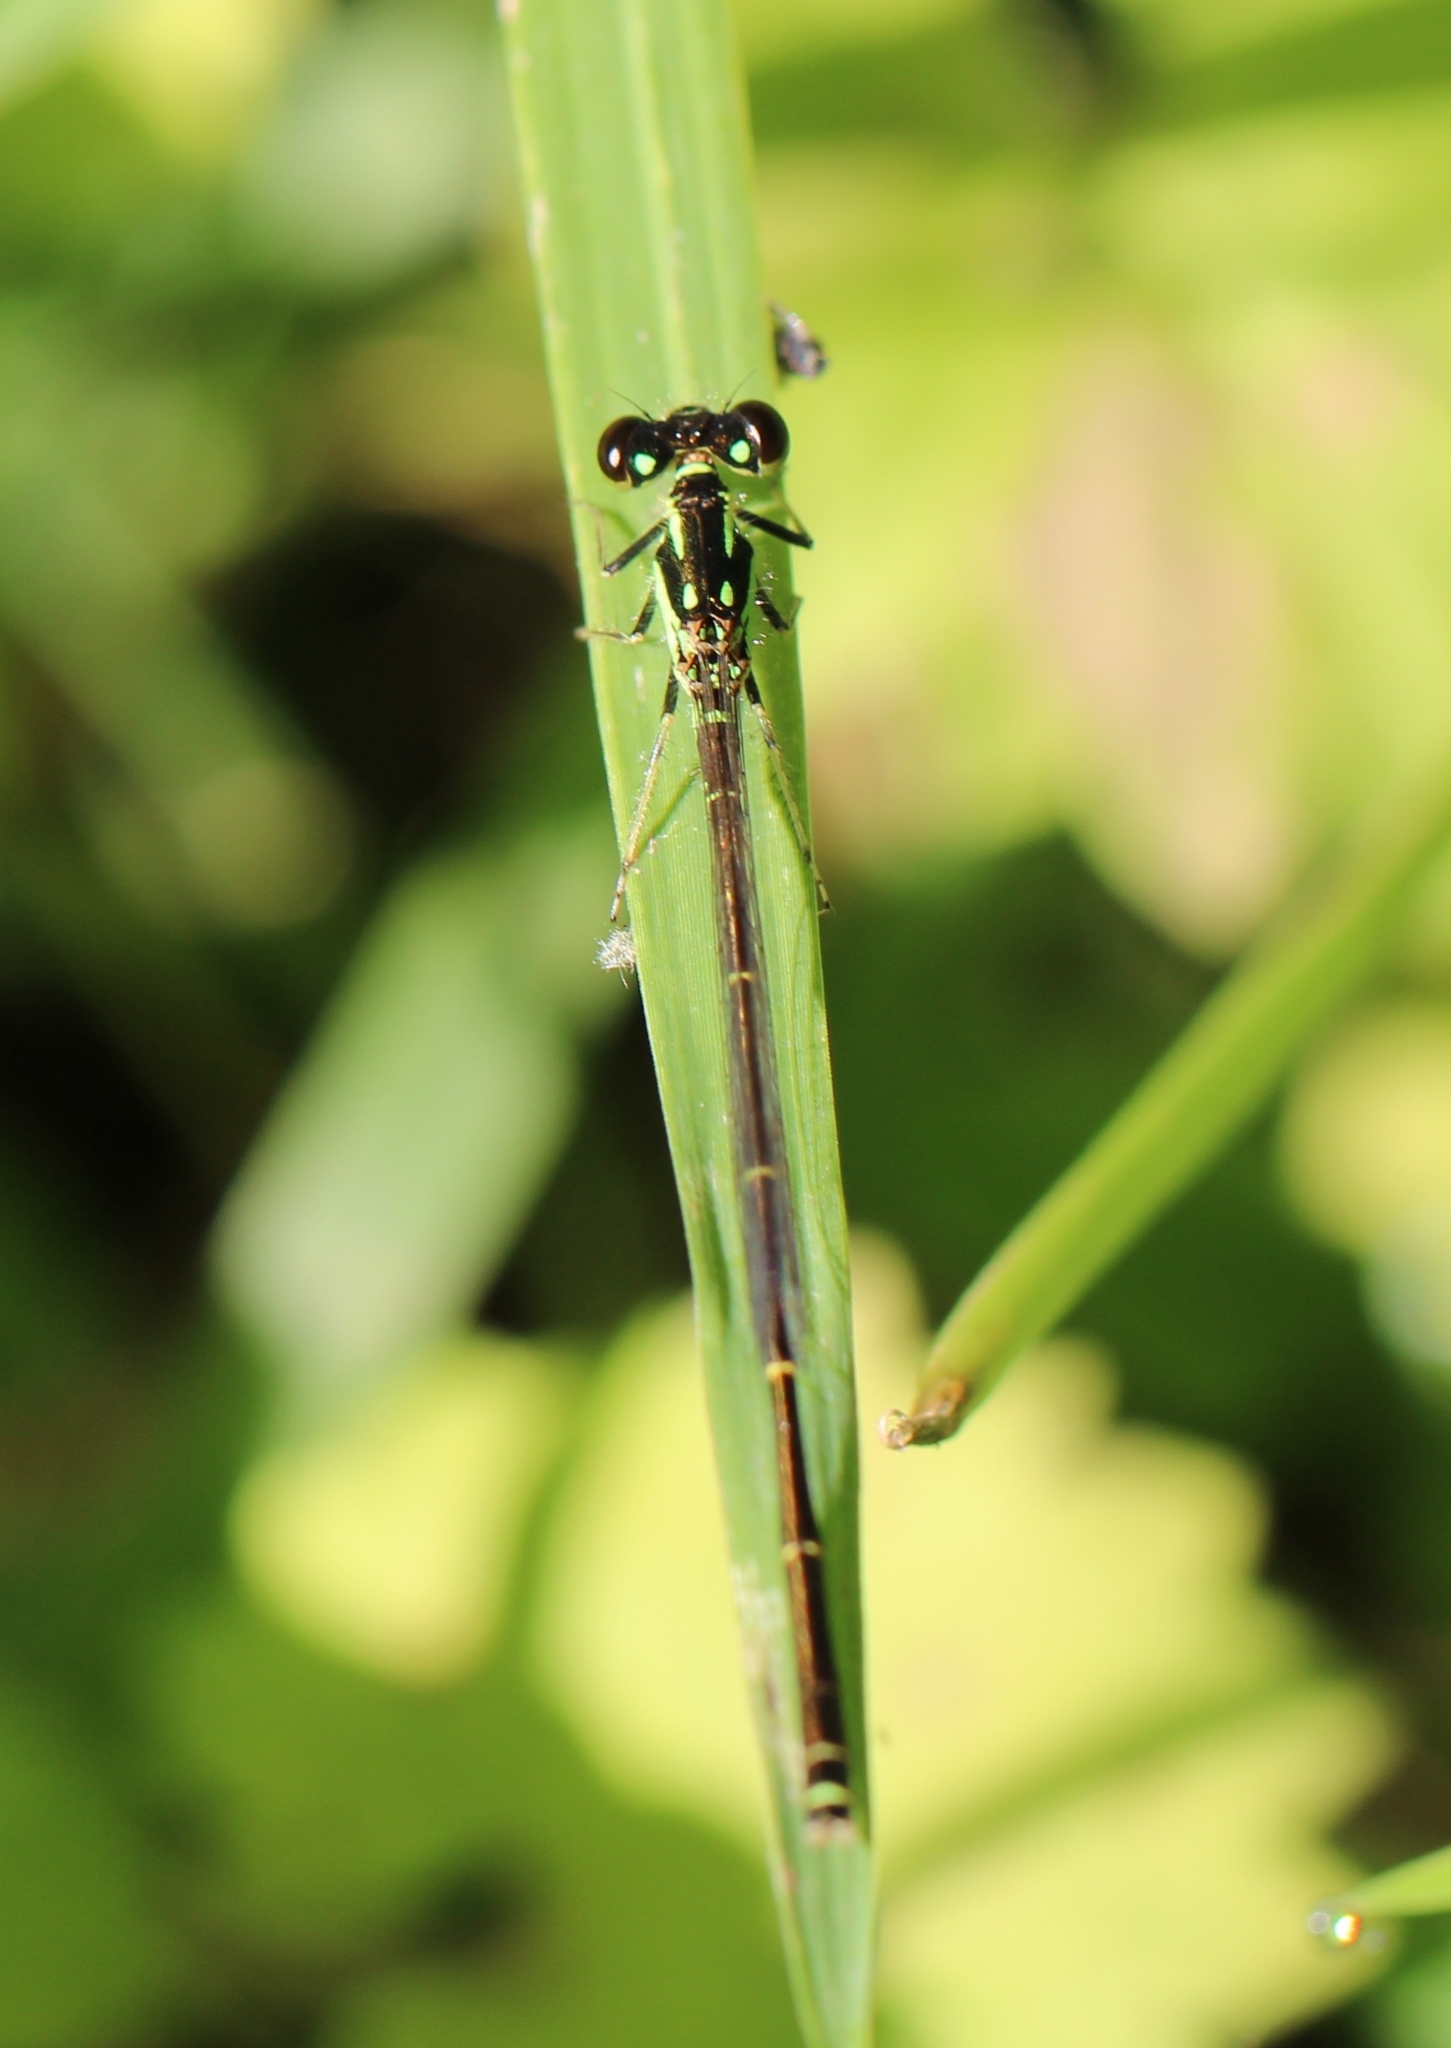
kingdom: Animalia
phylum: Arthropoda
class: Insecta
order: Odonata
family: Coenagrionidae
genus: Ischnura
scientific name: Ischnura posita
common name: Fragile forktail
